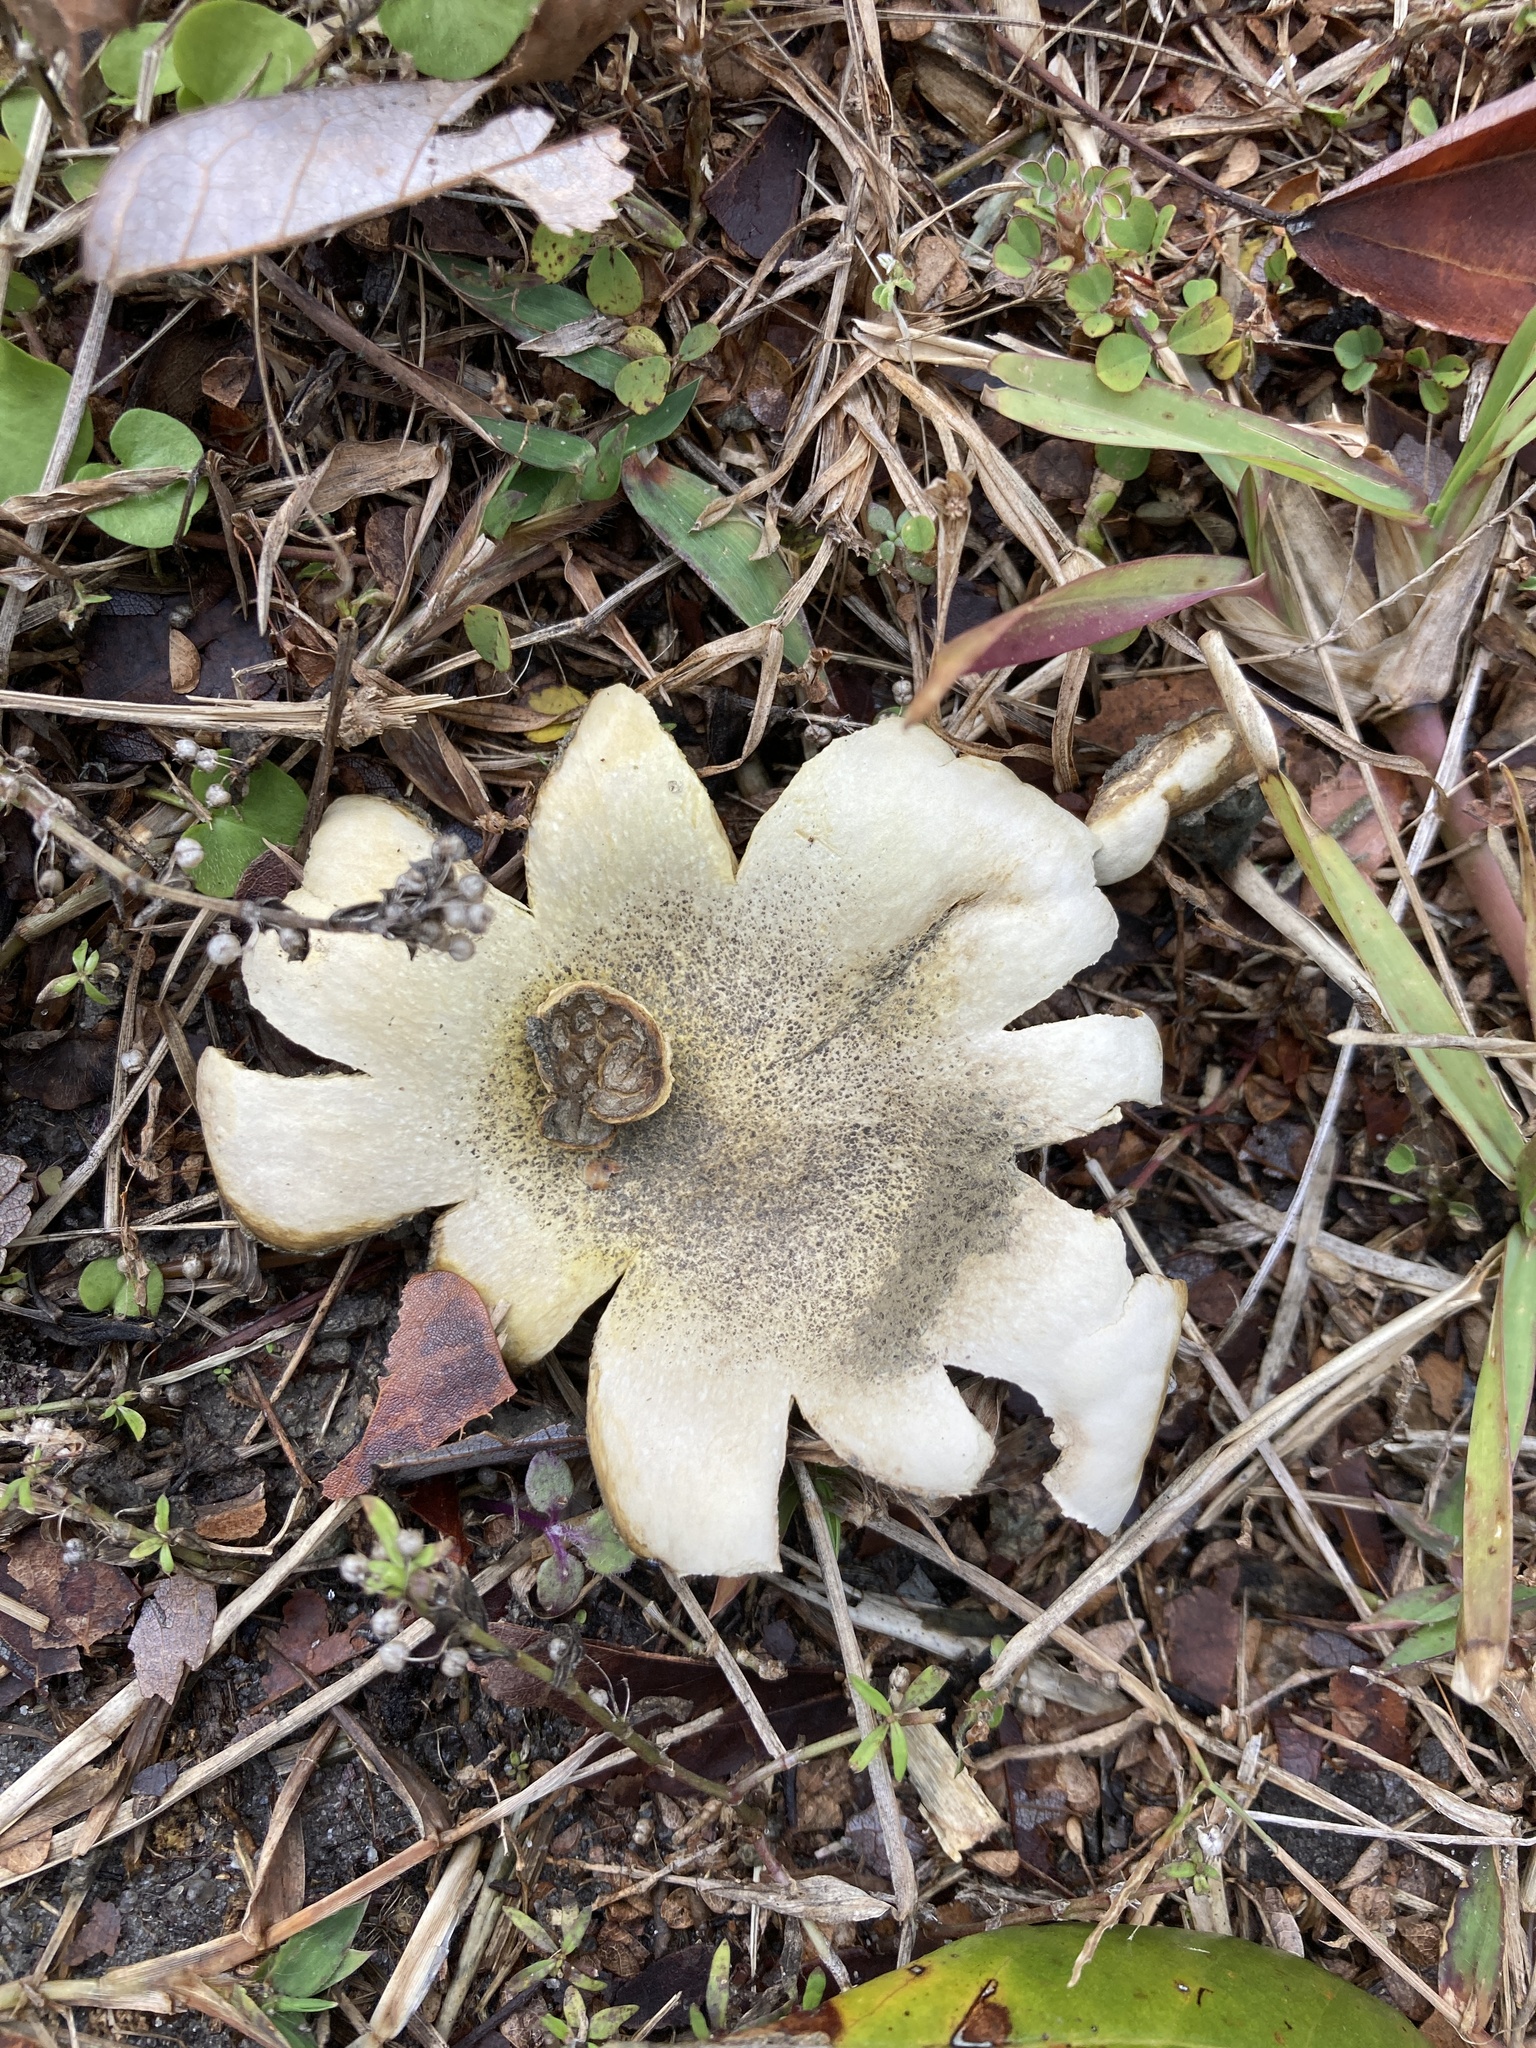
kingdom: Fungi
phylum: Basidiomycota
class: Agaricomycetes
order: Boletales
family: Sclerodermataceae
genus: Scleroderma
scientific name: Scleroderma polyrhizum
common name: Many-rooted earthball
